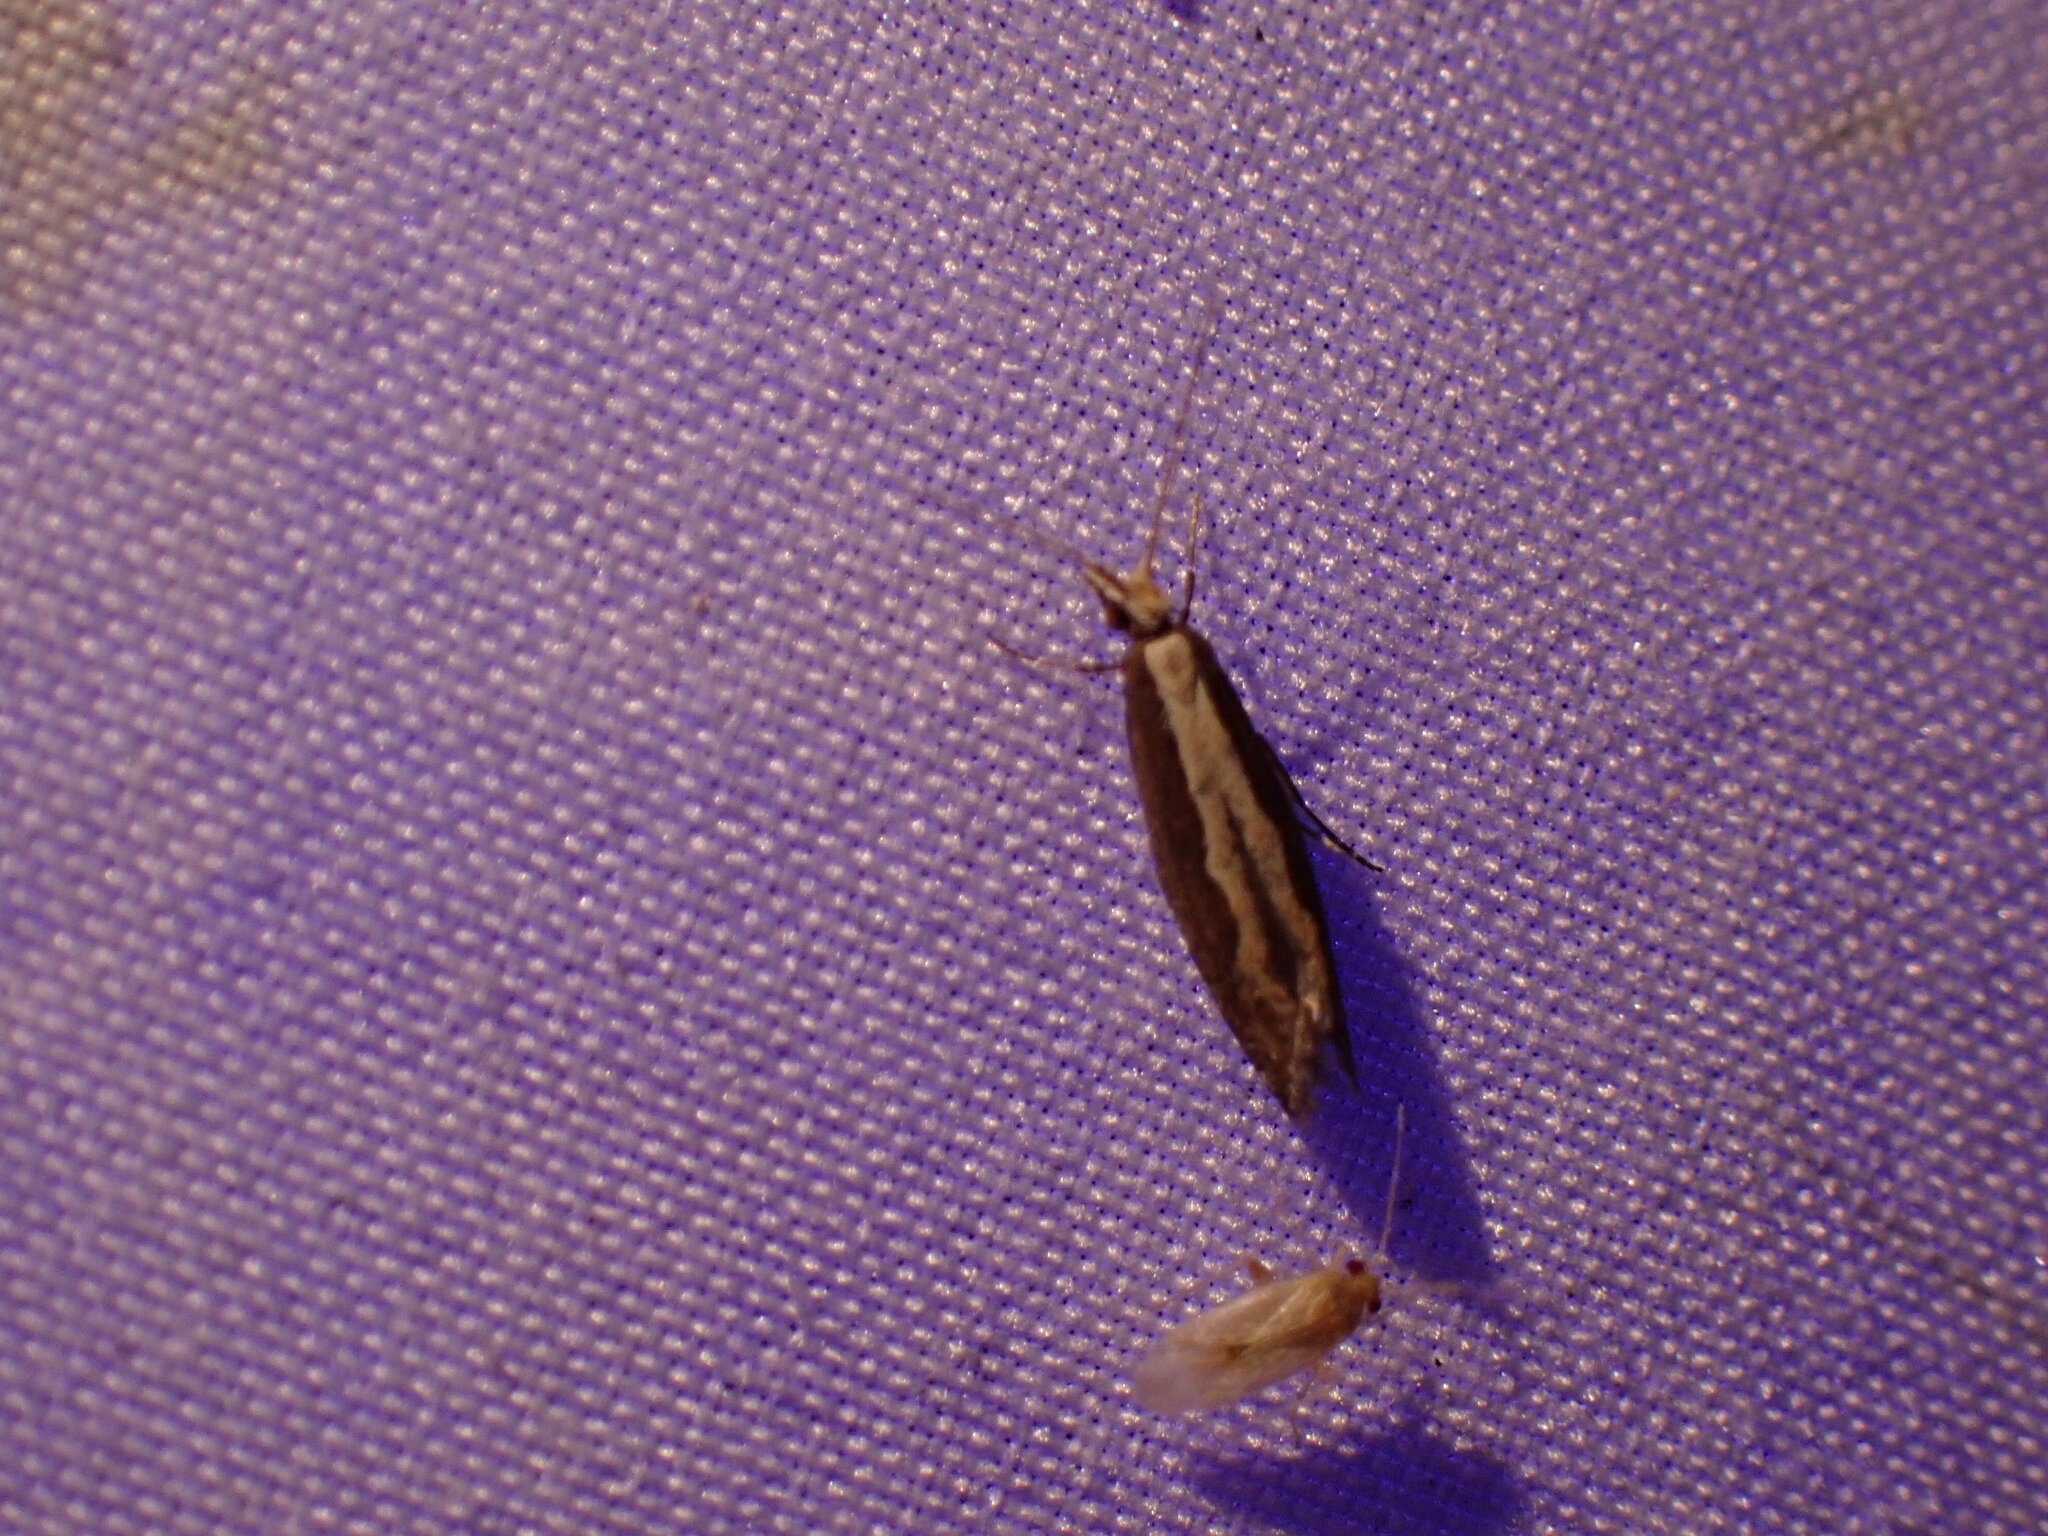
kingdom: Animalia
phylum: Arthropoda
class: Insecta
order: Lepidoptera
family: Plutellidae
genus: Plutella
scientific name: Plutella xylostella
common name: Diamond-back moth
